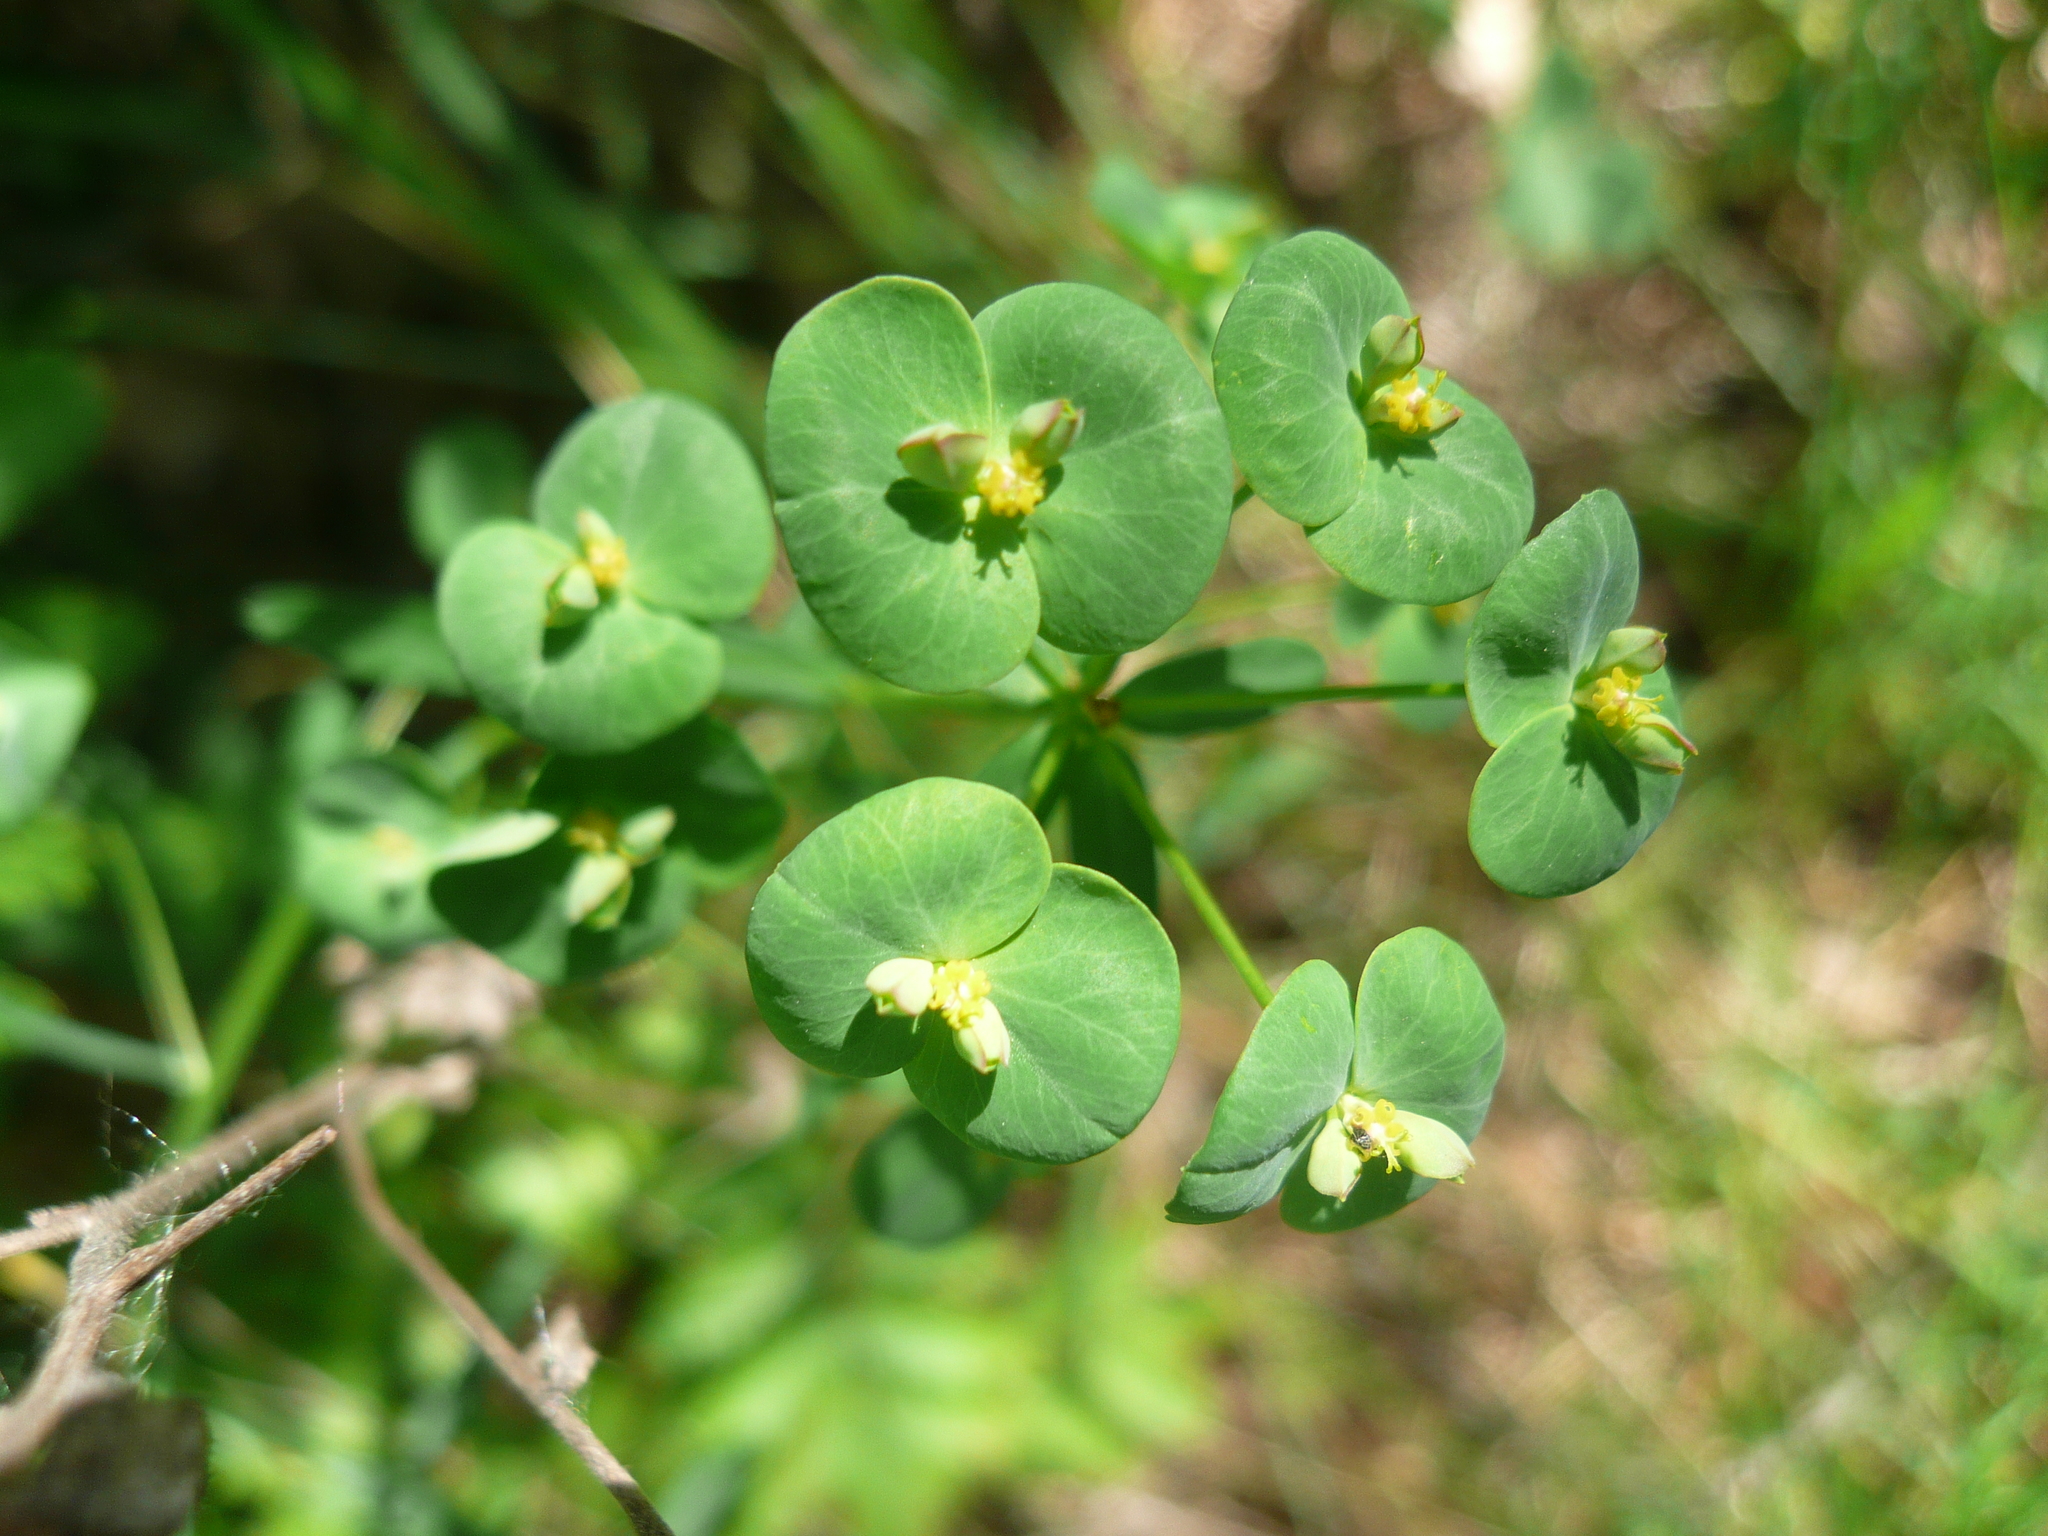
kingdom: Plantae
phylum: Tracheophyta
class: Magnoliopsida
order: Malpighiales
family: Euphorbiaceae
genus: Euphorbia
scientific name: Euphorbia microcarpa
